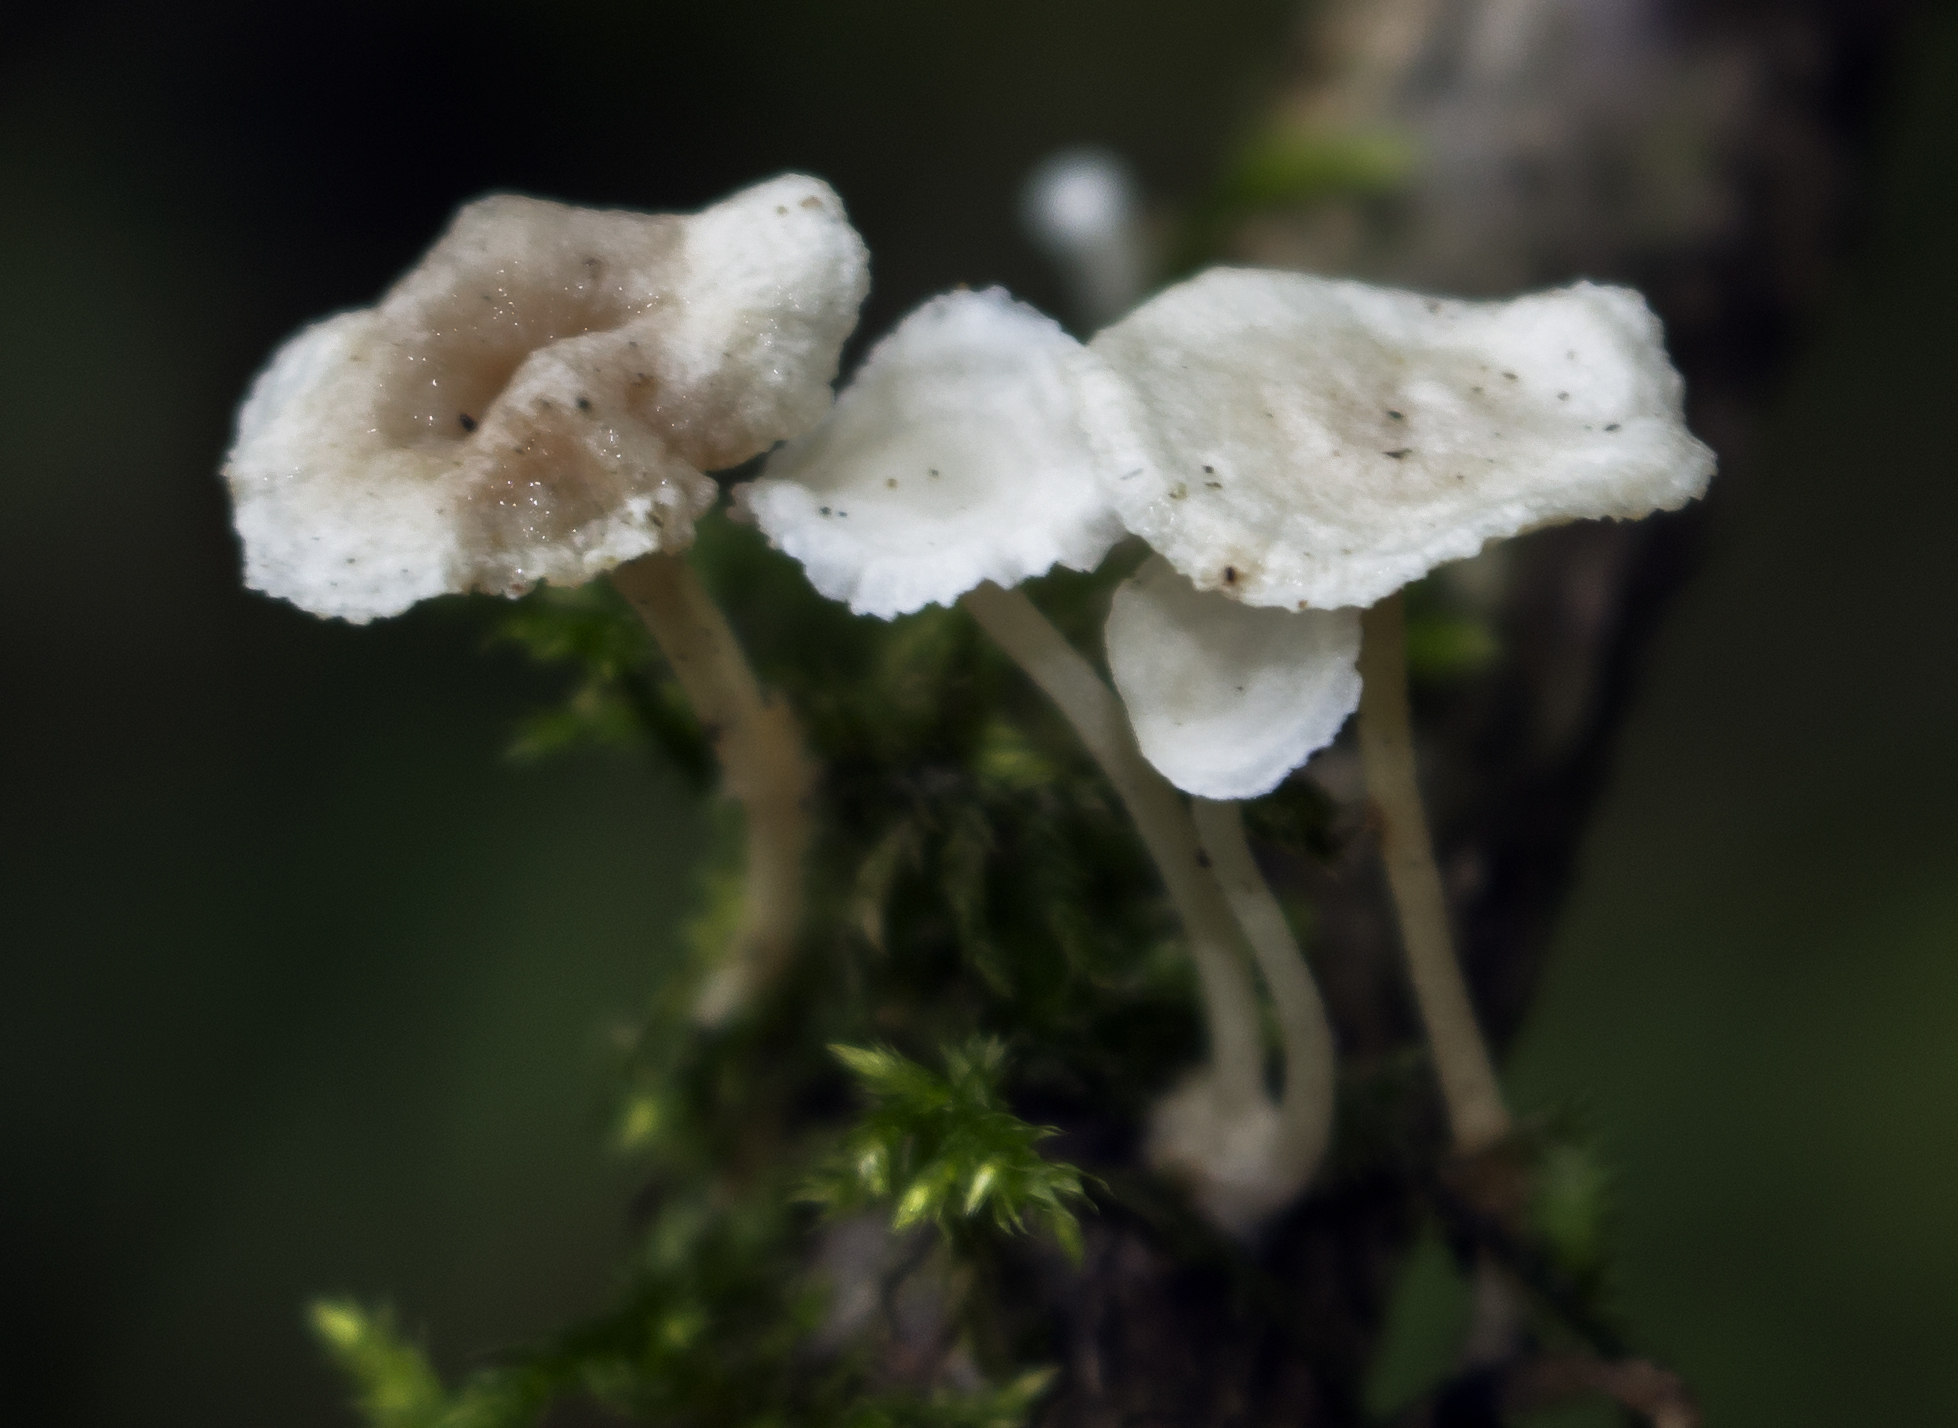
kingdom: Fungi
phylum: Basidiomycota
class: Agaricomycetes
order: Agaricales
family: Mycenaceae
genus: Resinomycena
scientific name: Resinomycena rhododendri
